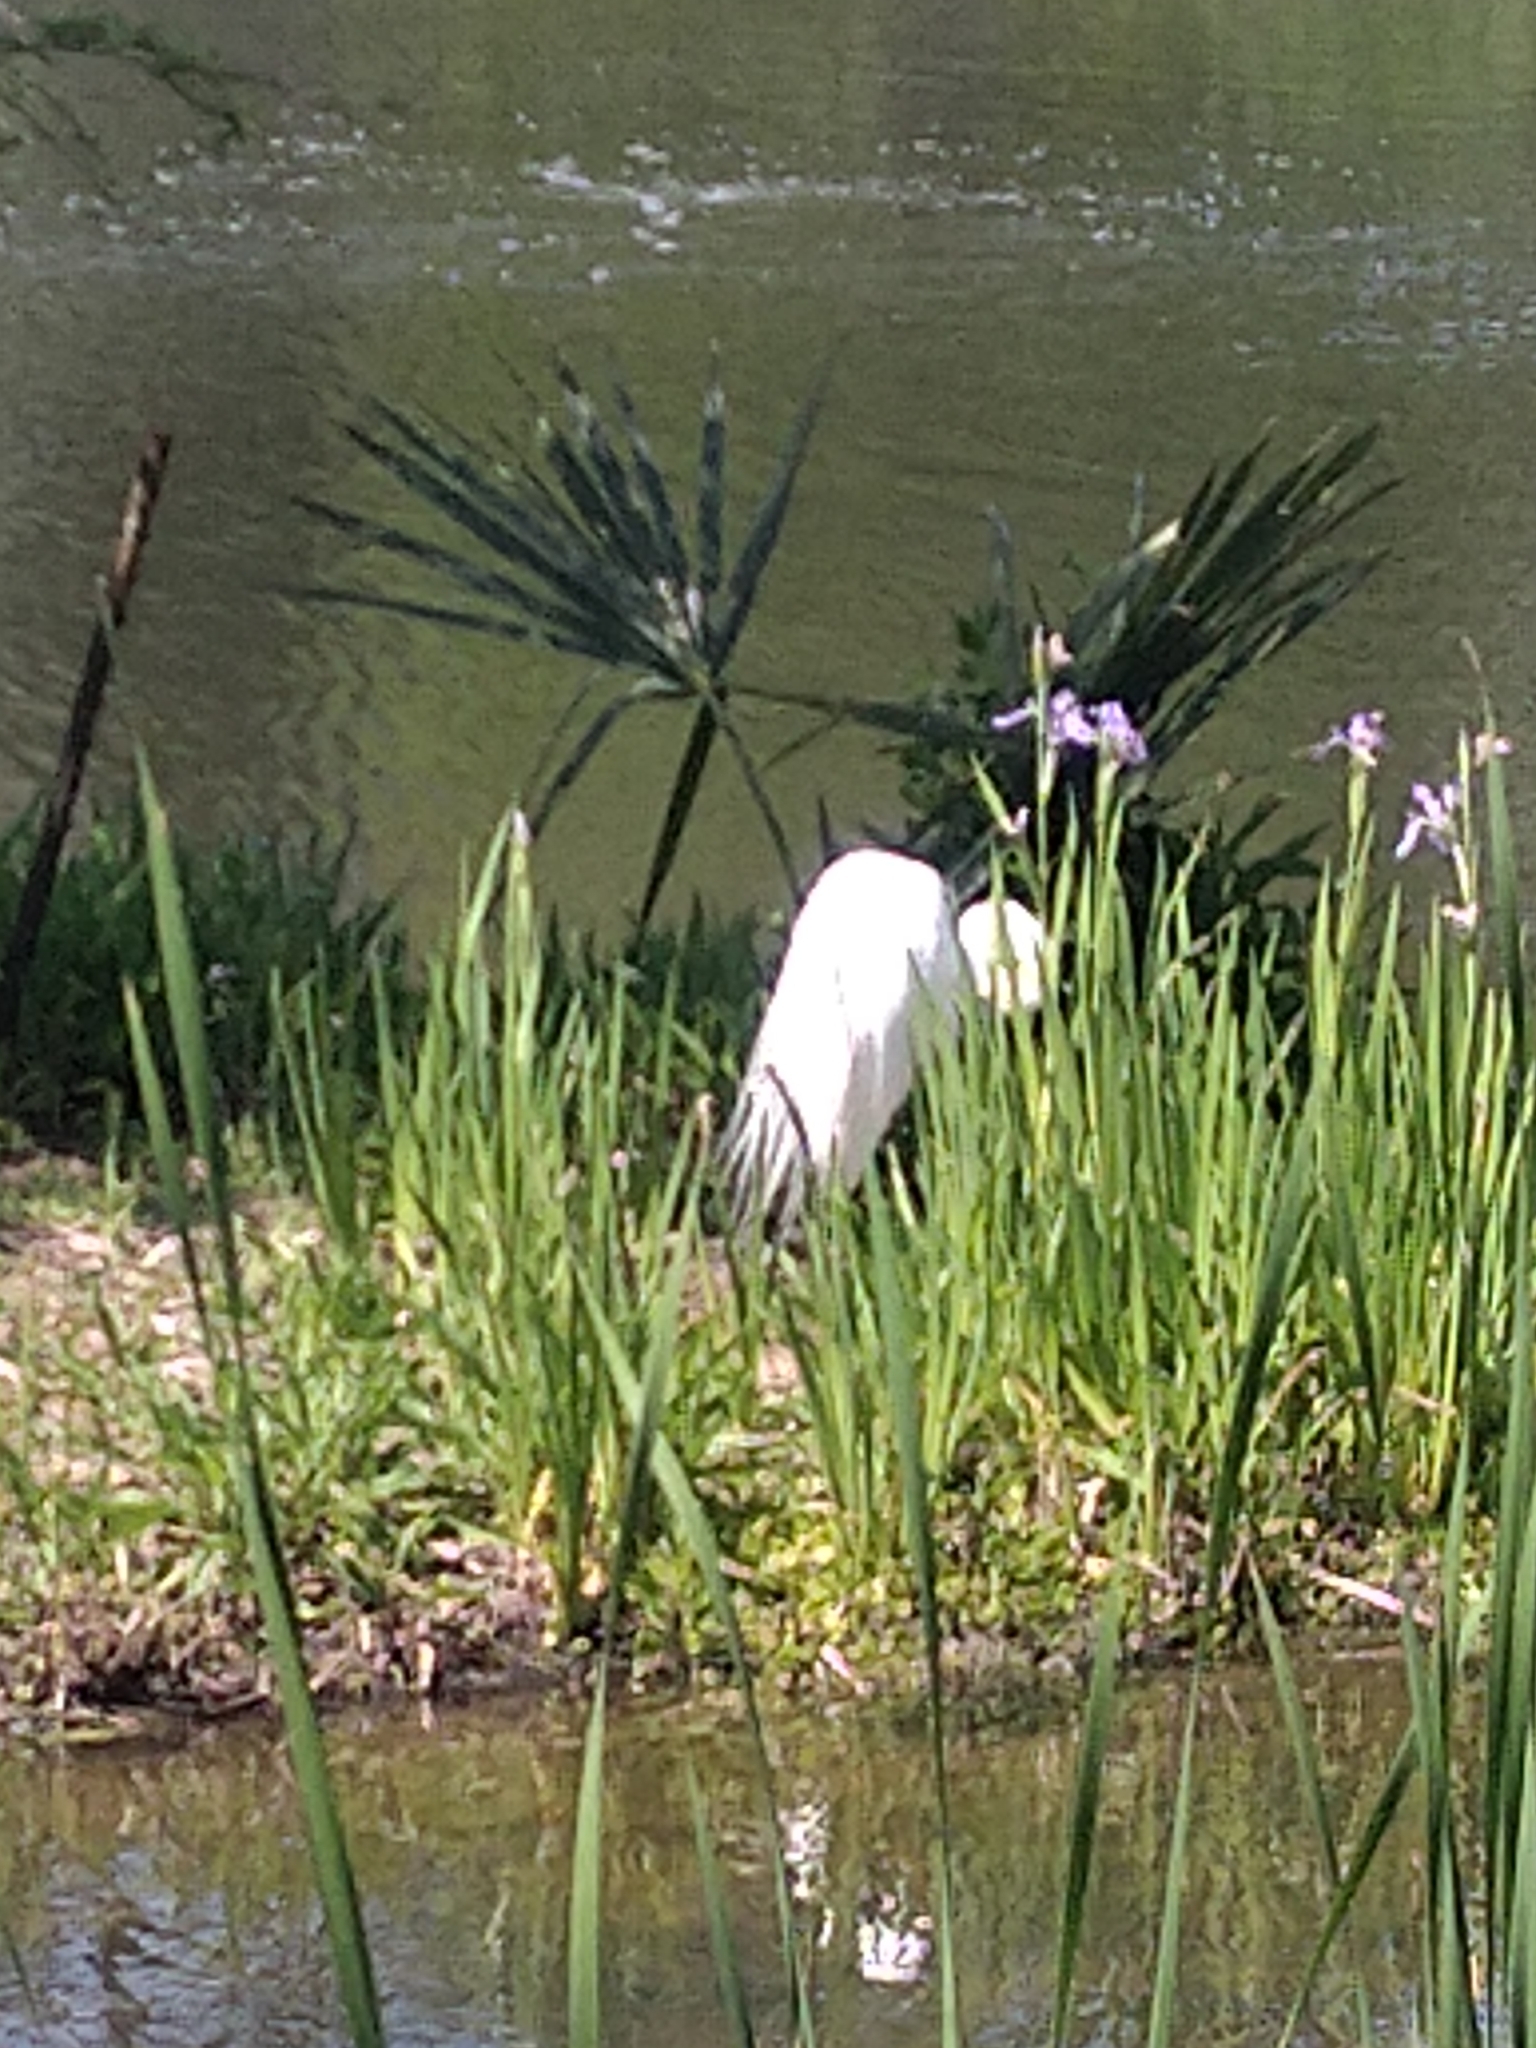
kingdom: Animalia
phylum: Chordata
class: Aves
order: Pelecaniformes
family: Ardeidae
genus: Ardea
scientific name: Ardea alba
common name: Great egret
